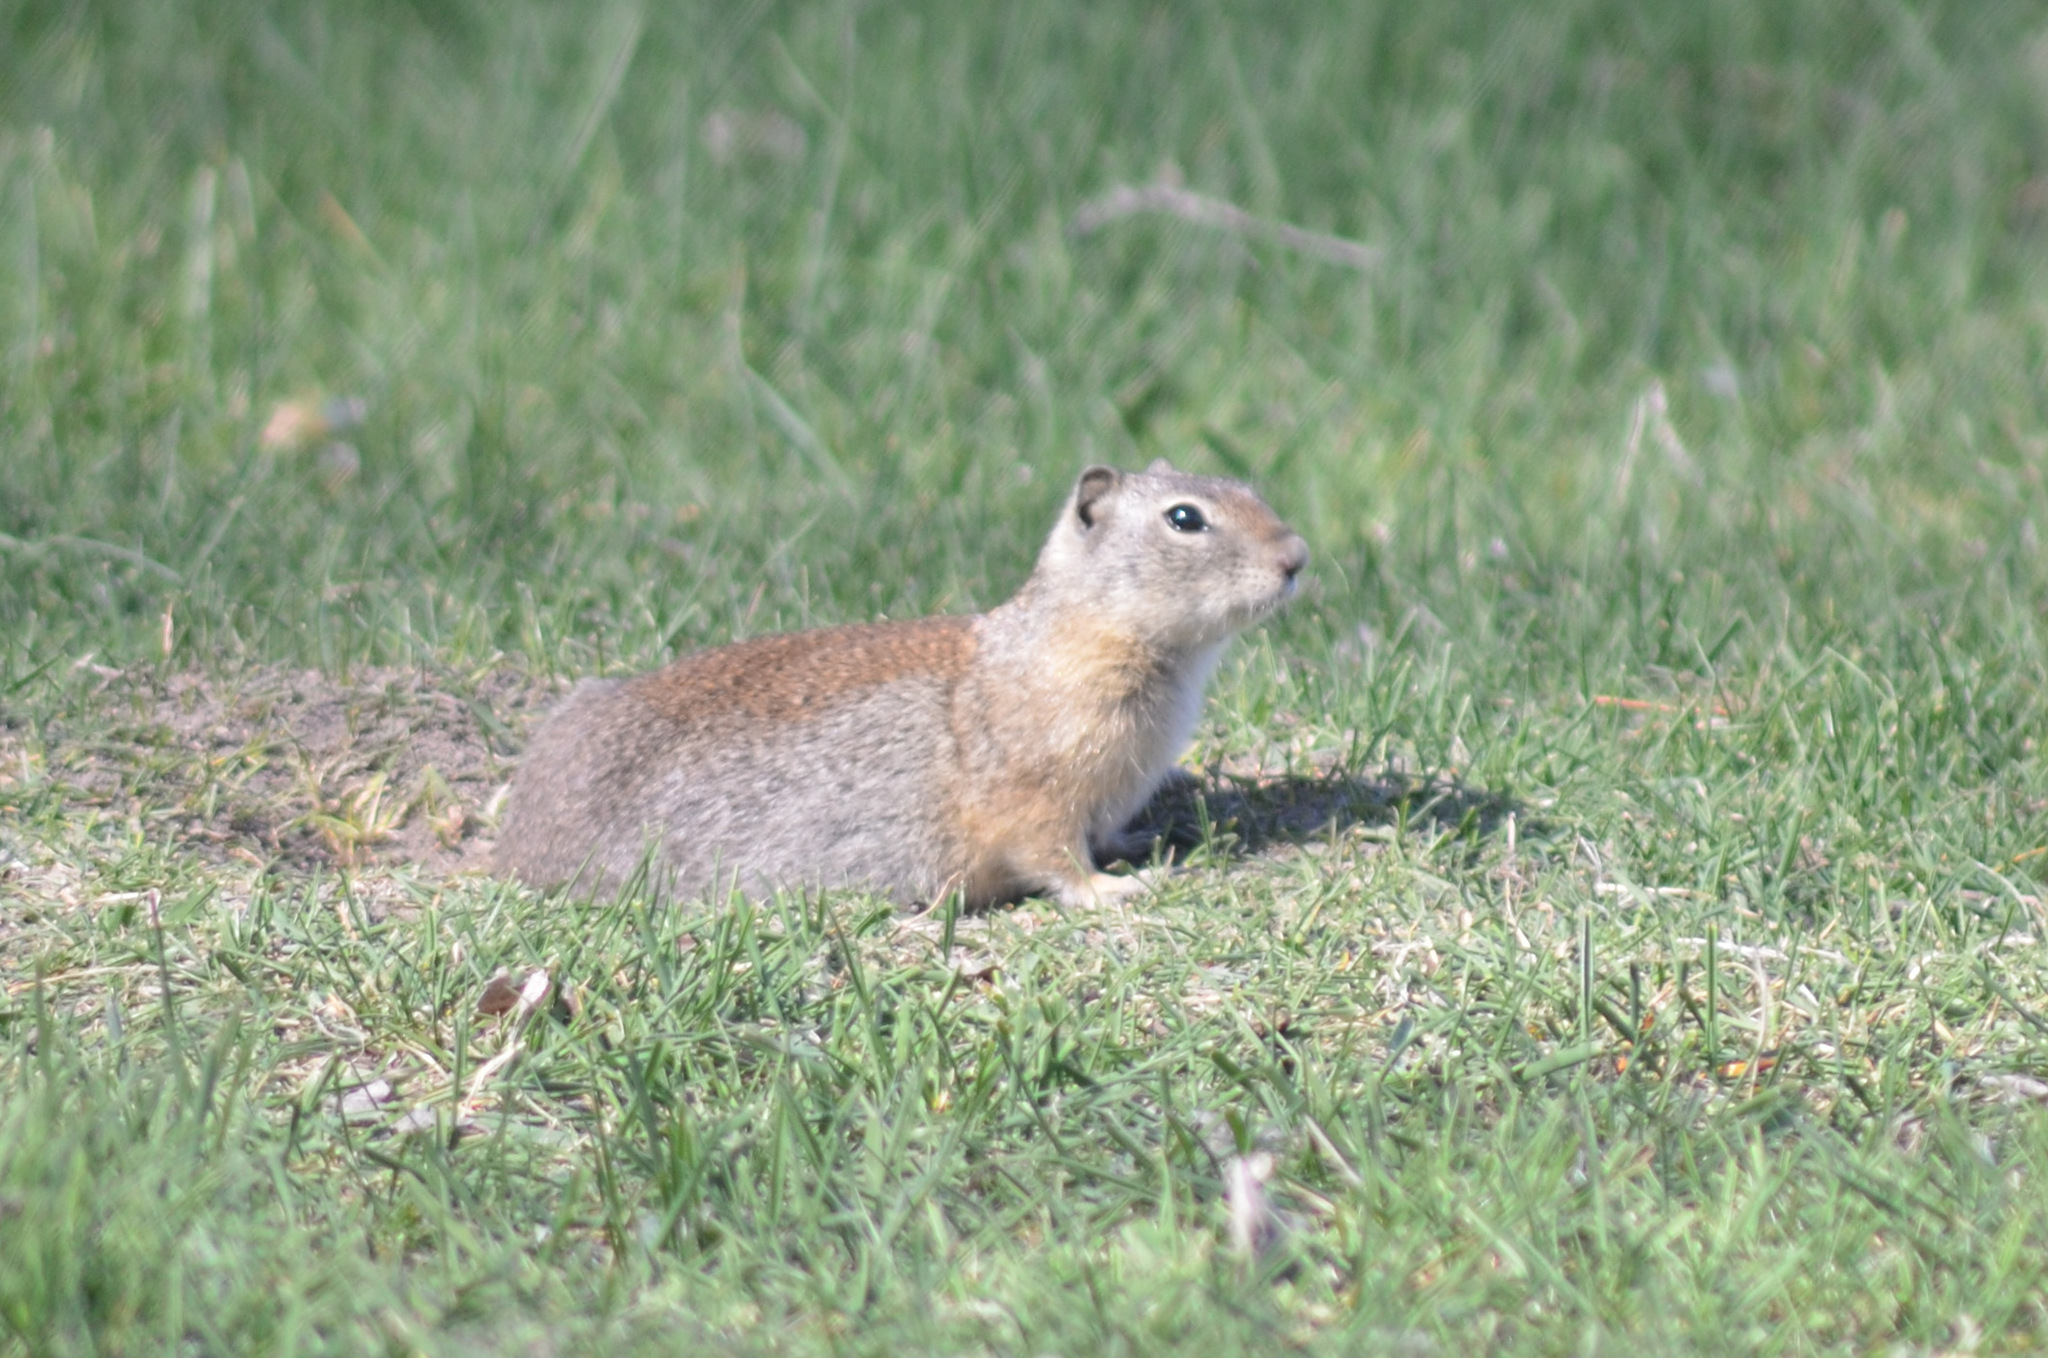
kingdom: Animalia
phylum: Chordata
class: Mammalia
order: Rodentia
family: Sciuridae
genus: Urocitellus
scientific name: Urocitellus beldingi
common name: Belding's ground squirrel
